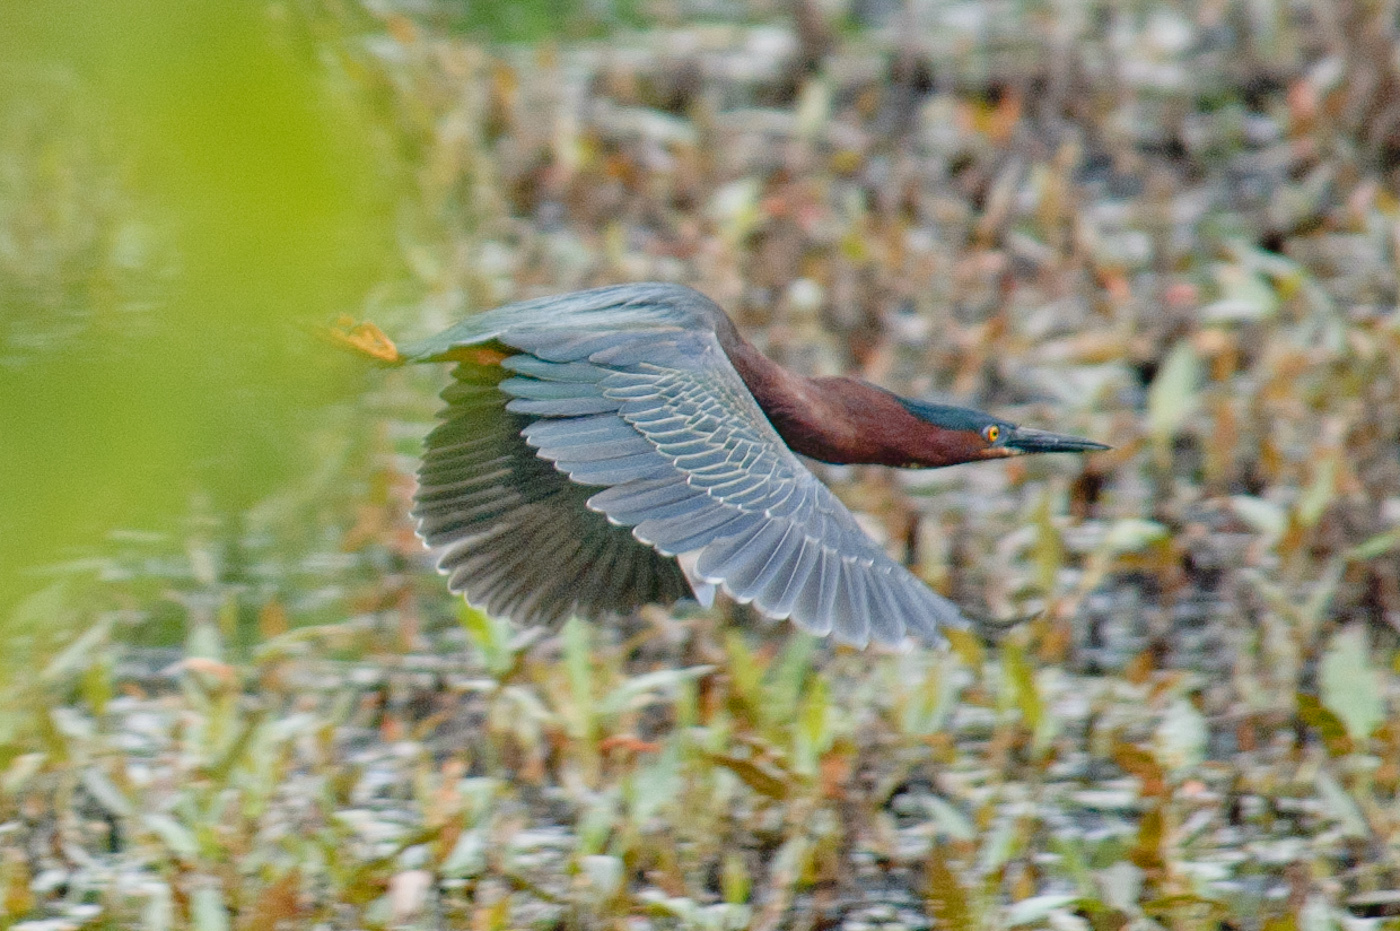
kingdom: Animalia
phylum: Chordata
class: Aves
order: Pelecaniformes
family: Ardeidae
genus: Butorides
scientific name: Butorides virescens
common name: Green heron
